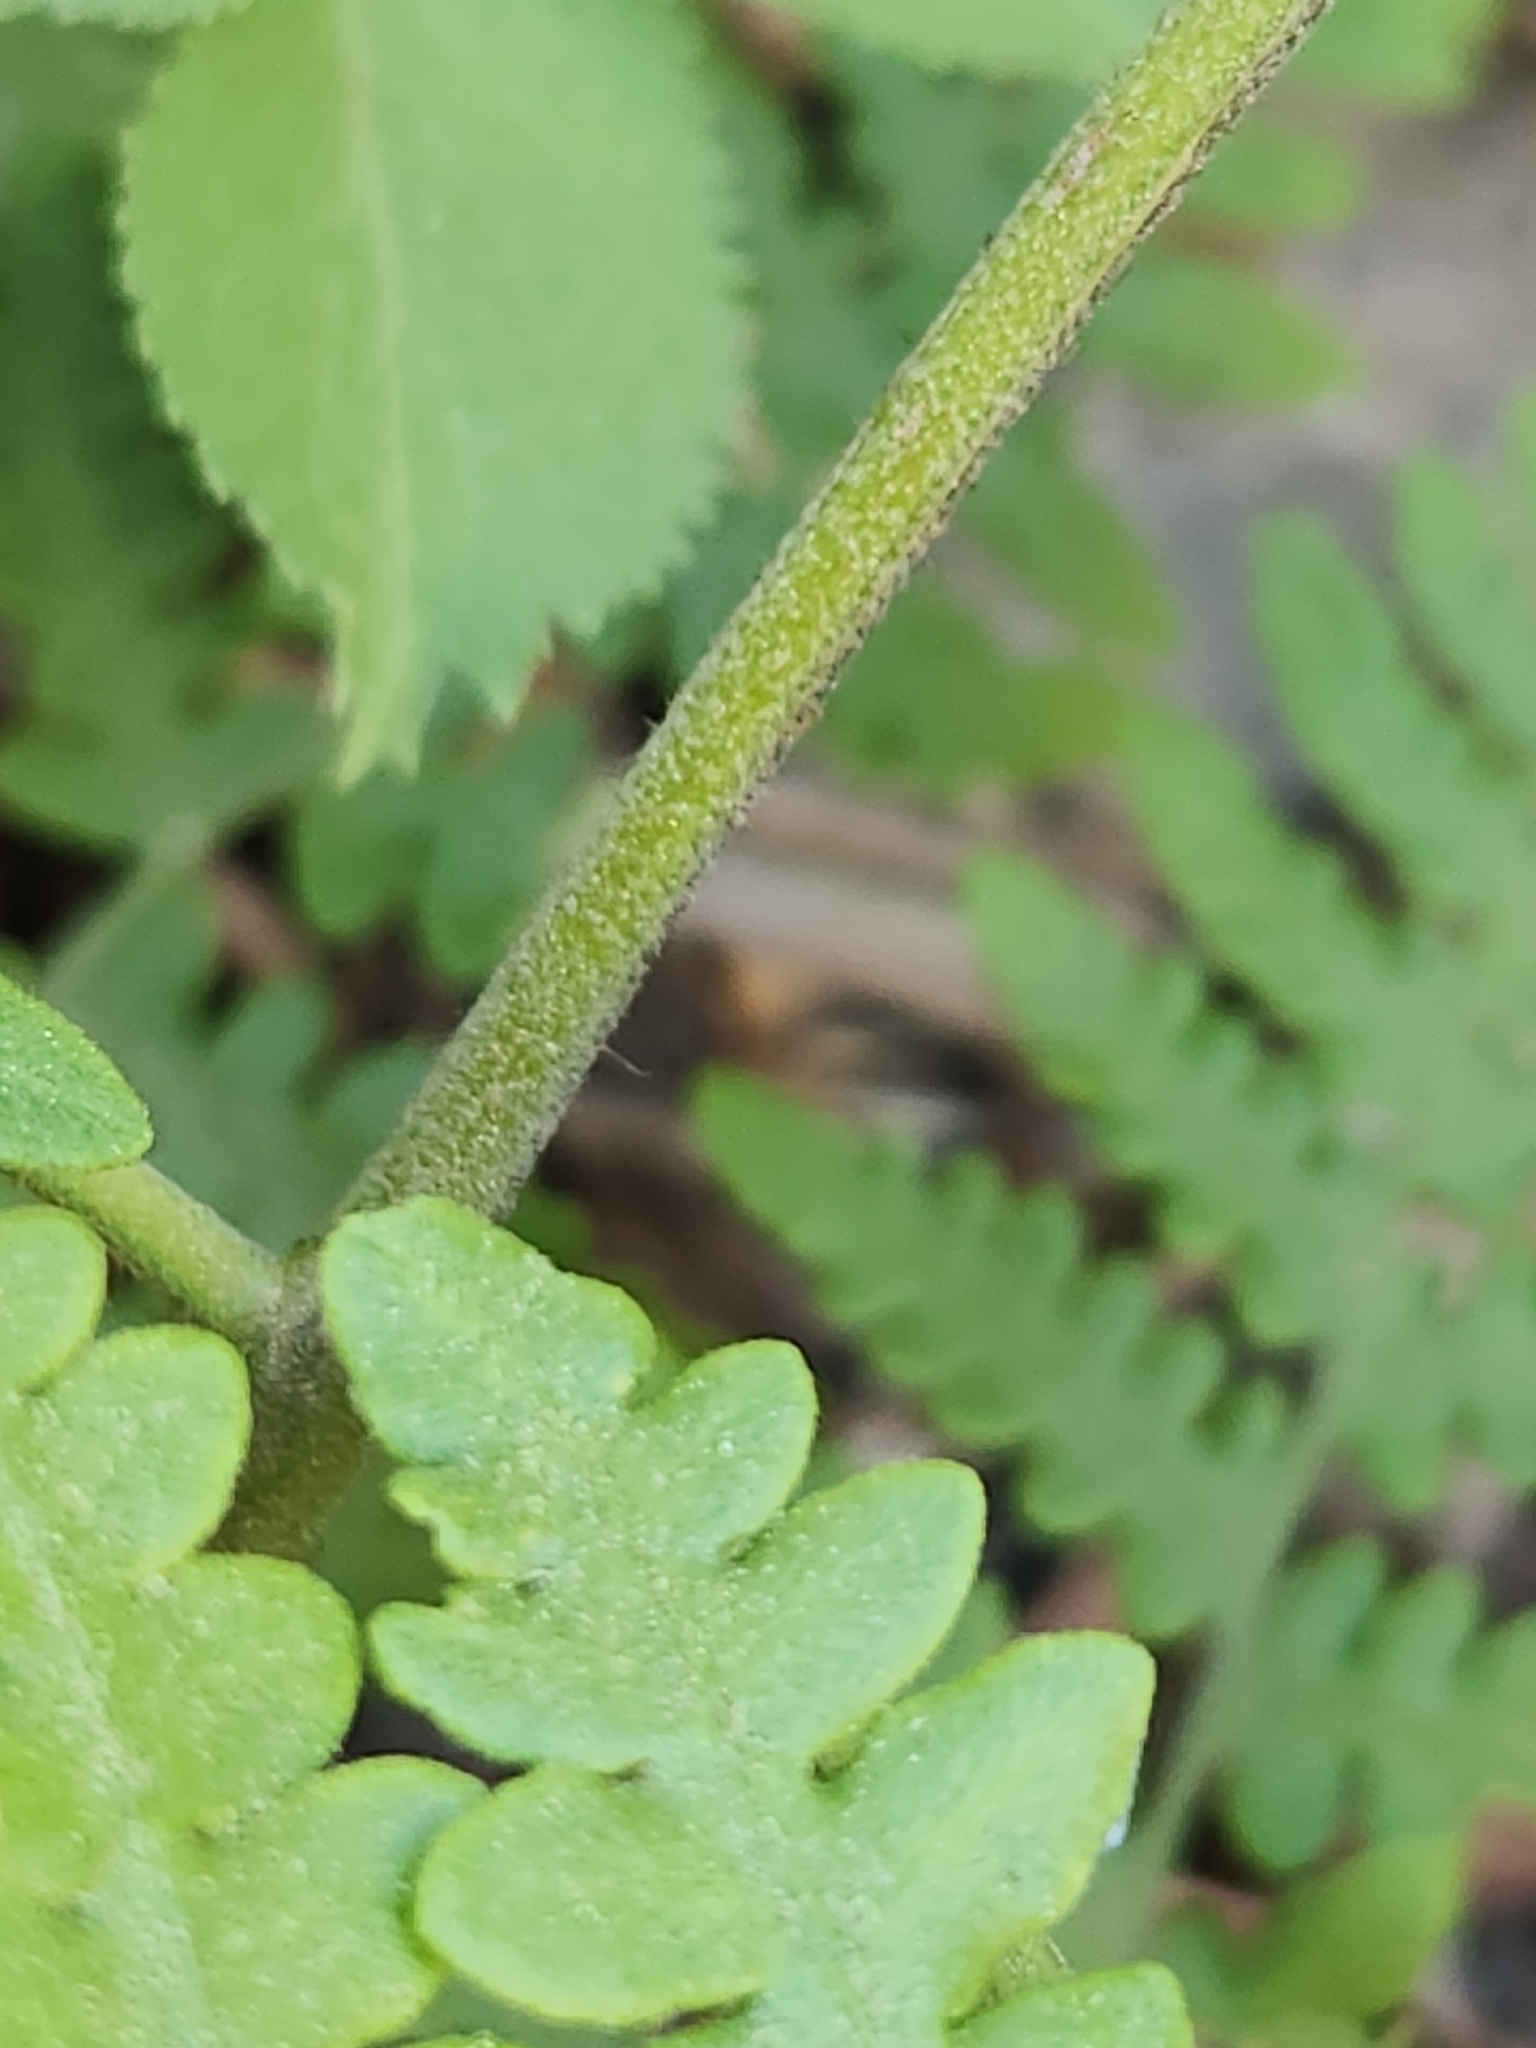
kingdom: Plantae
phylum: Tracheophyta
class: Polypodiopsida
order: Polypodiales
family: Dennstaedtiaceae
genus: Pteridium
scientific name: Pteridium aquilinum
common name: Bracken
